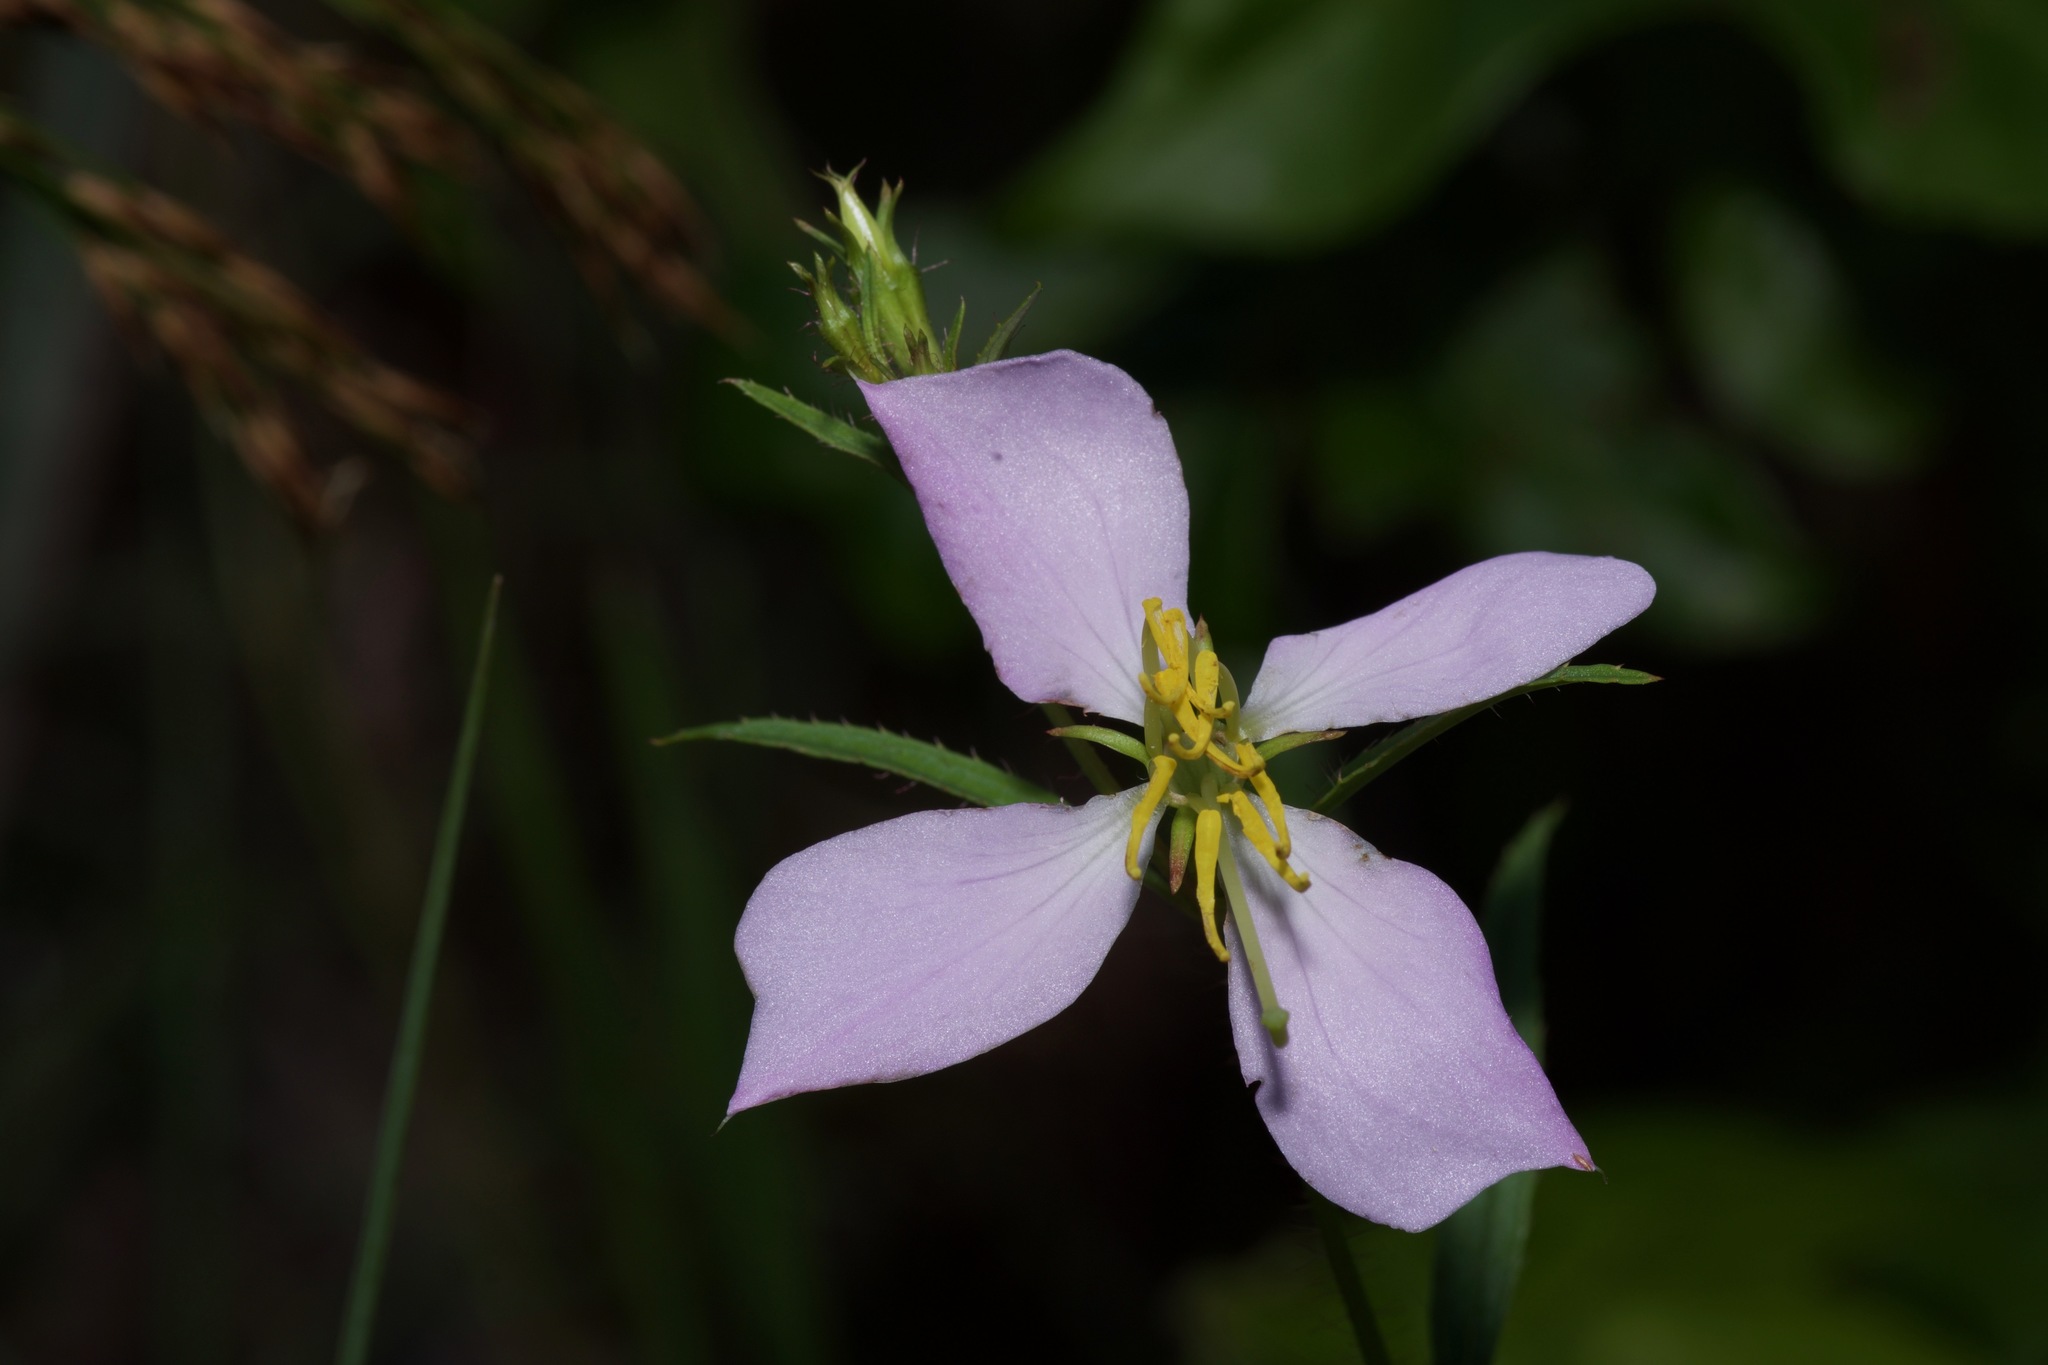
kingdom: Plantae
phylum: Tracheophyta
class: Magnoliopsida
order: Myrtales
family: Melastomataceae
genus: Rhexia
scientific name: Rhexia mariana
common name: Dull meadow-pitcher
